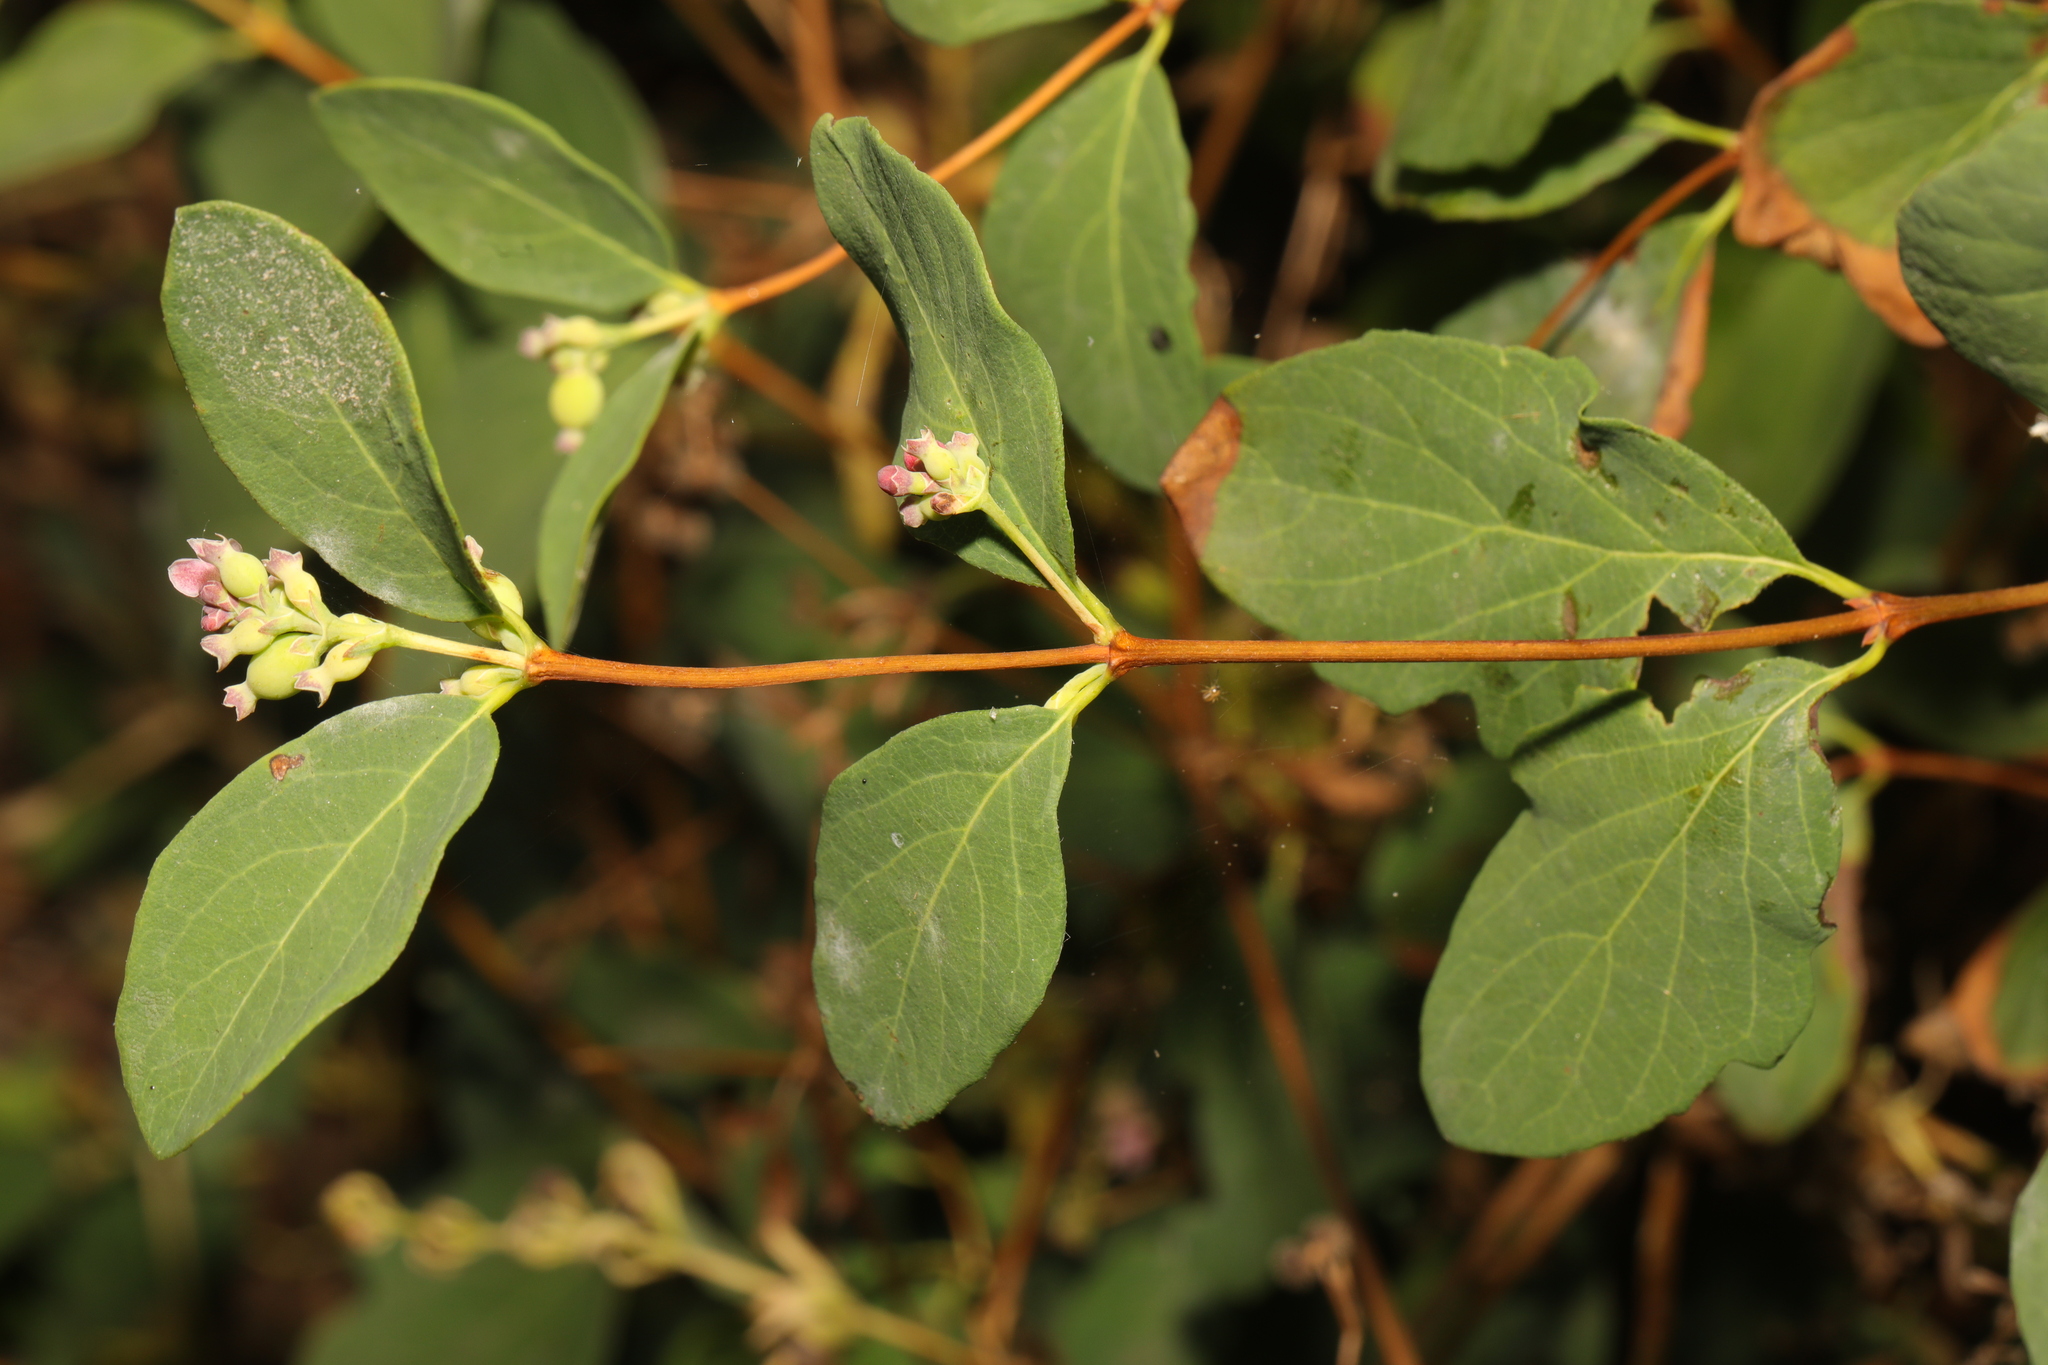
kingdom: Plantae
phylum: Tracheophyta
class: Magnoliopsida
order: Dipsacales
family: Caprifoliaceae
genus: Symphoricarpos
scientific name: Symphoricarpos albus
